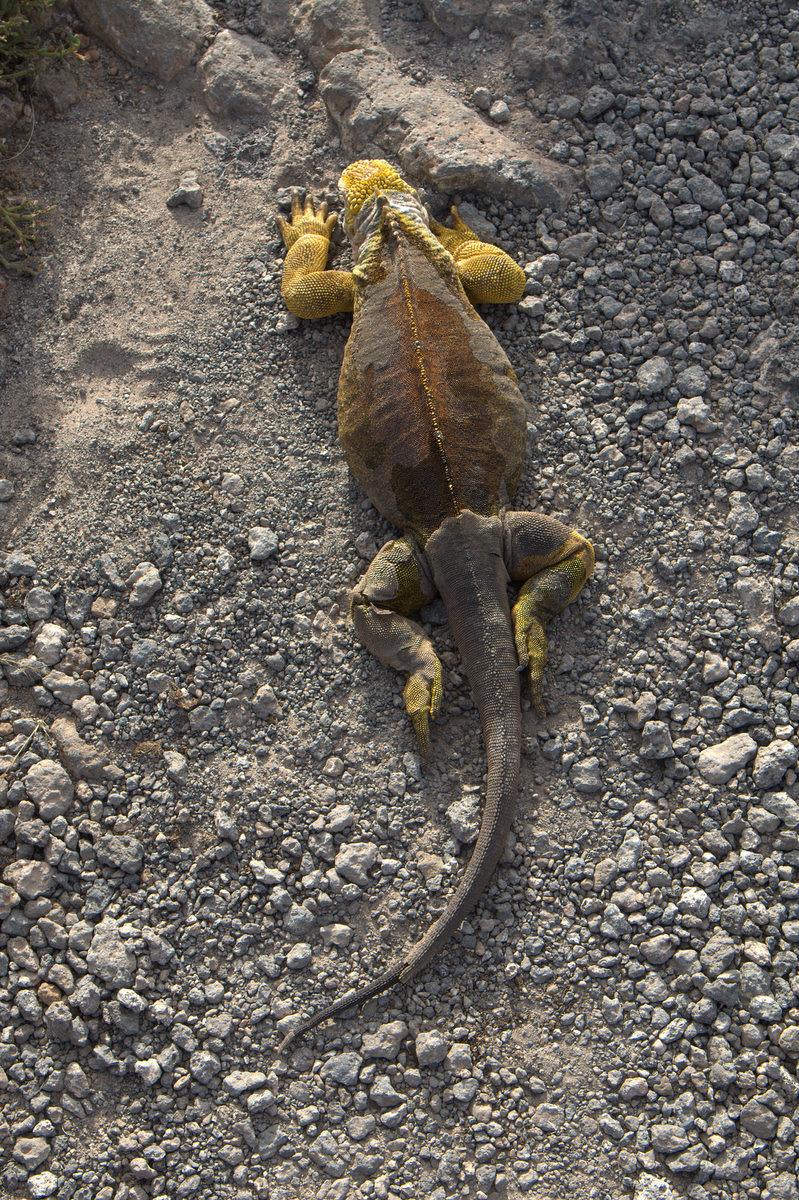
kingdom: Animalia
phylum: Chordata
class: Squamata
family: Iguanidae
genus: Conolophus
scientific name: Conolophus subcristatus
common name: Galapagos land iguana
